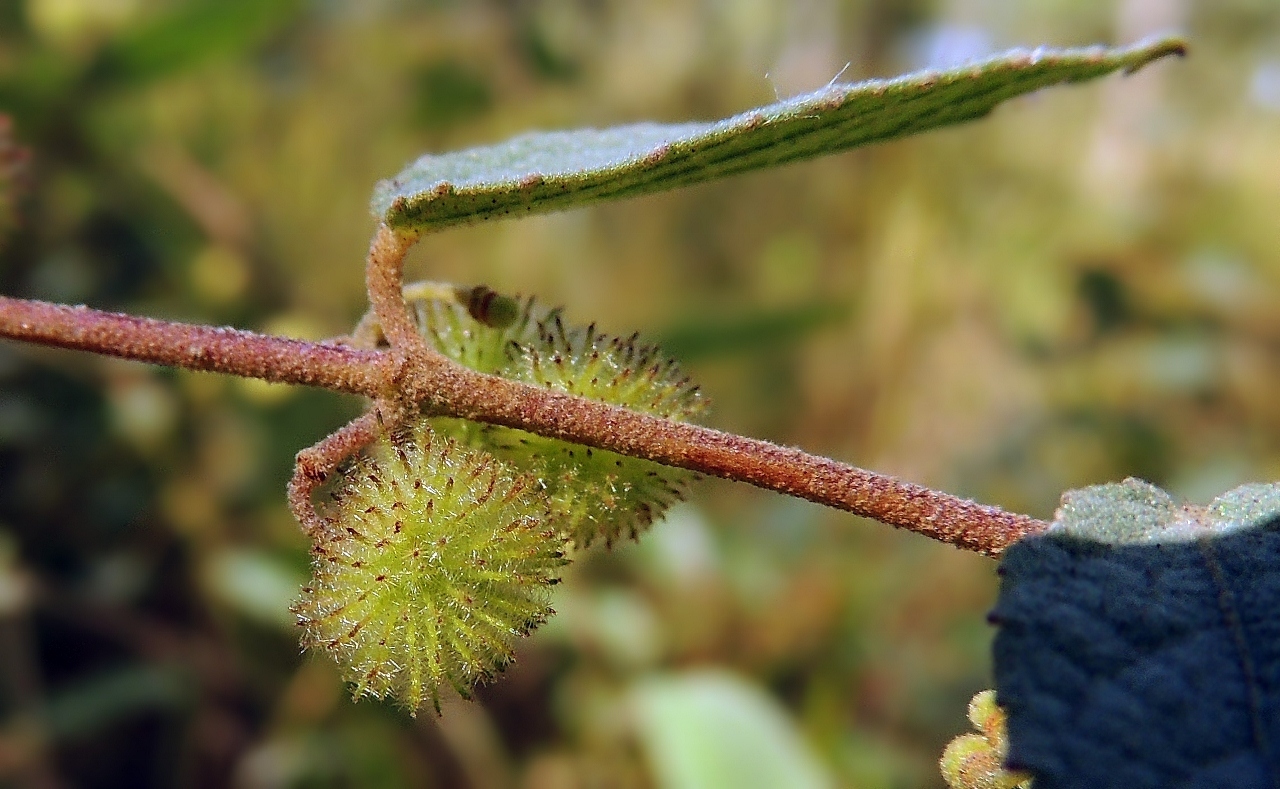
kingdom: Plantae
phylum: Tracheophyta
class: Magnoliopsida
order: Malvales
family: Malvaceae
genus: Triumfetta
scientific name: Triumfetta dekindtiana
